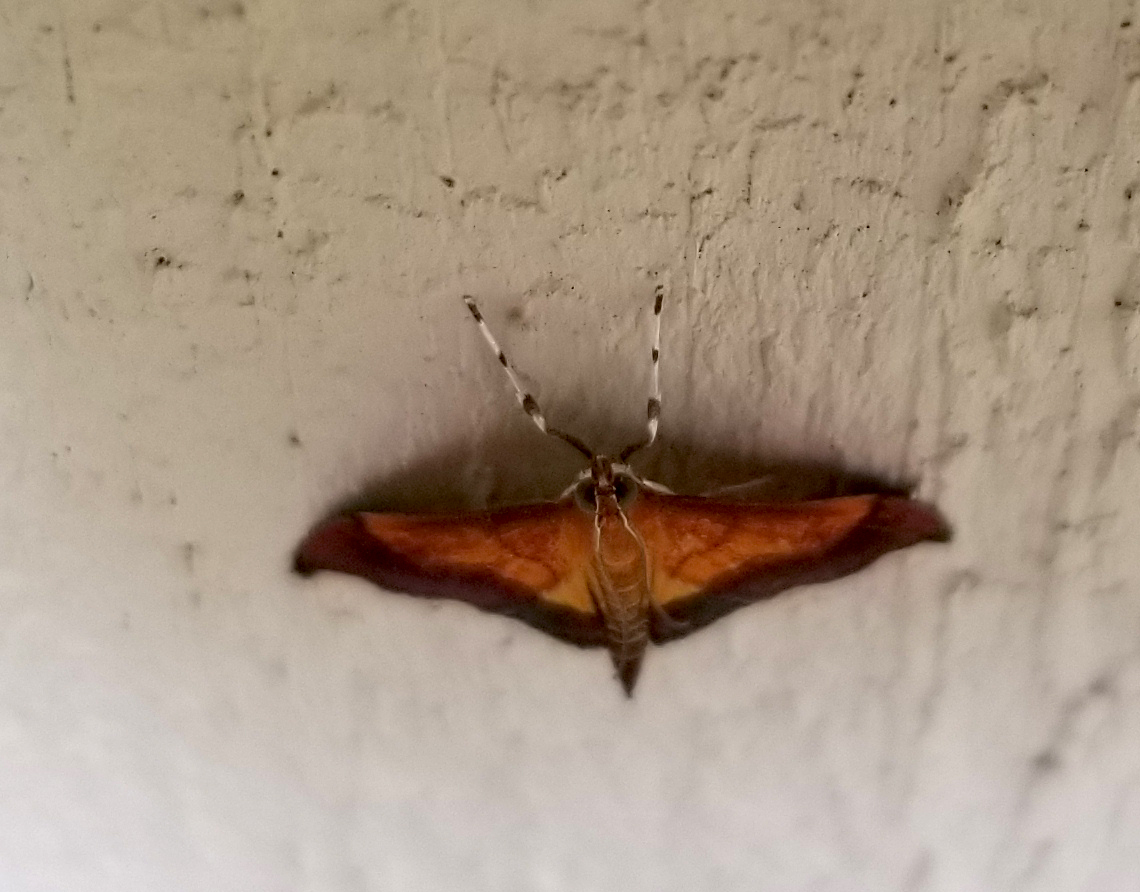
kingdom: Animalia
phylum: Arthropoda
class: Insecta
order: Lepidoptera
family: Crambidae
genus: Pyrausta
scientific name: Pyrausta bicoloralis
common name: Bicolored pyrausta moth
